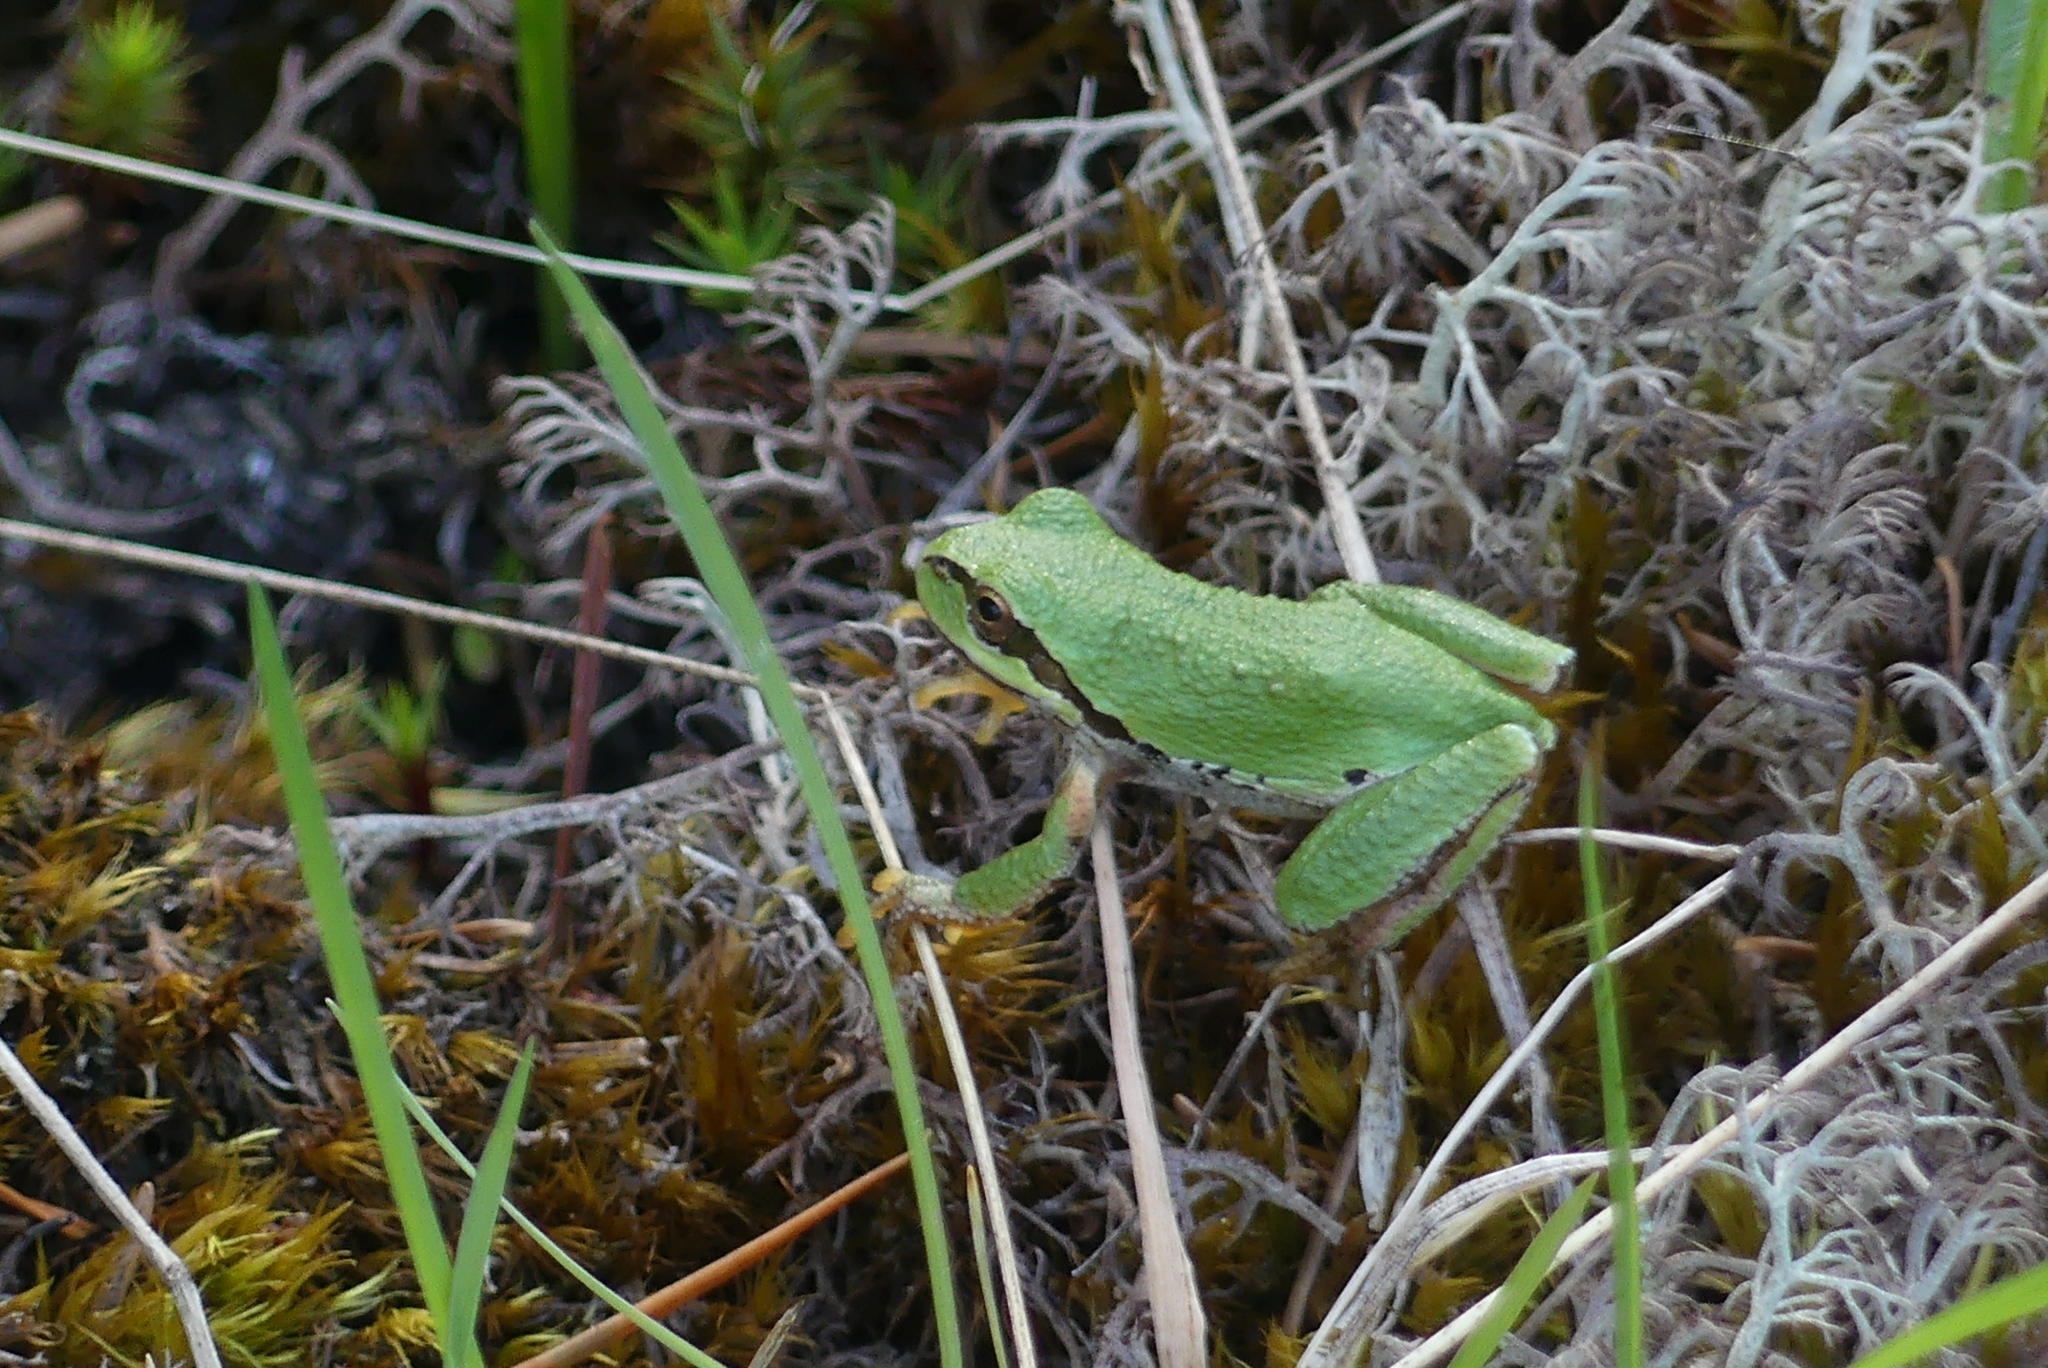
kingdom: Animalia
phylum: Chordata
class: Amphibia
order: Anura
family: Hylidae
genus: Pseudacris
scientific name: Pseudacris regilla
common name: Pacific chorus frog
